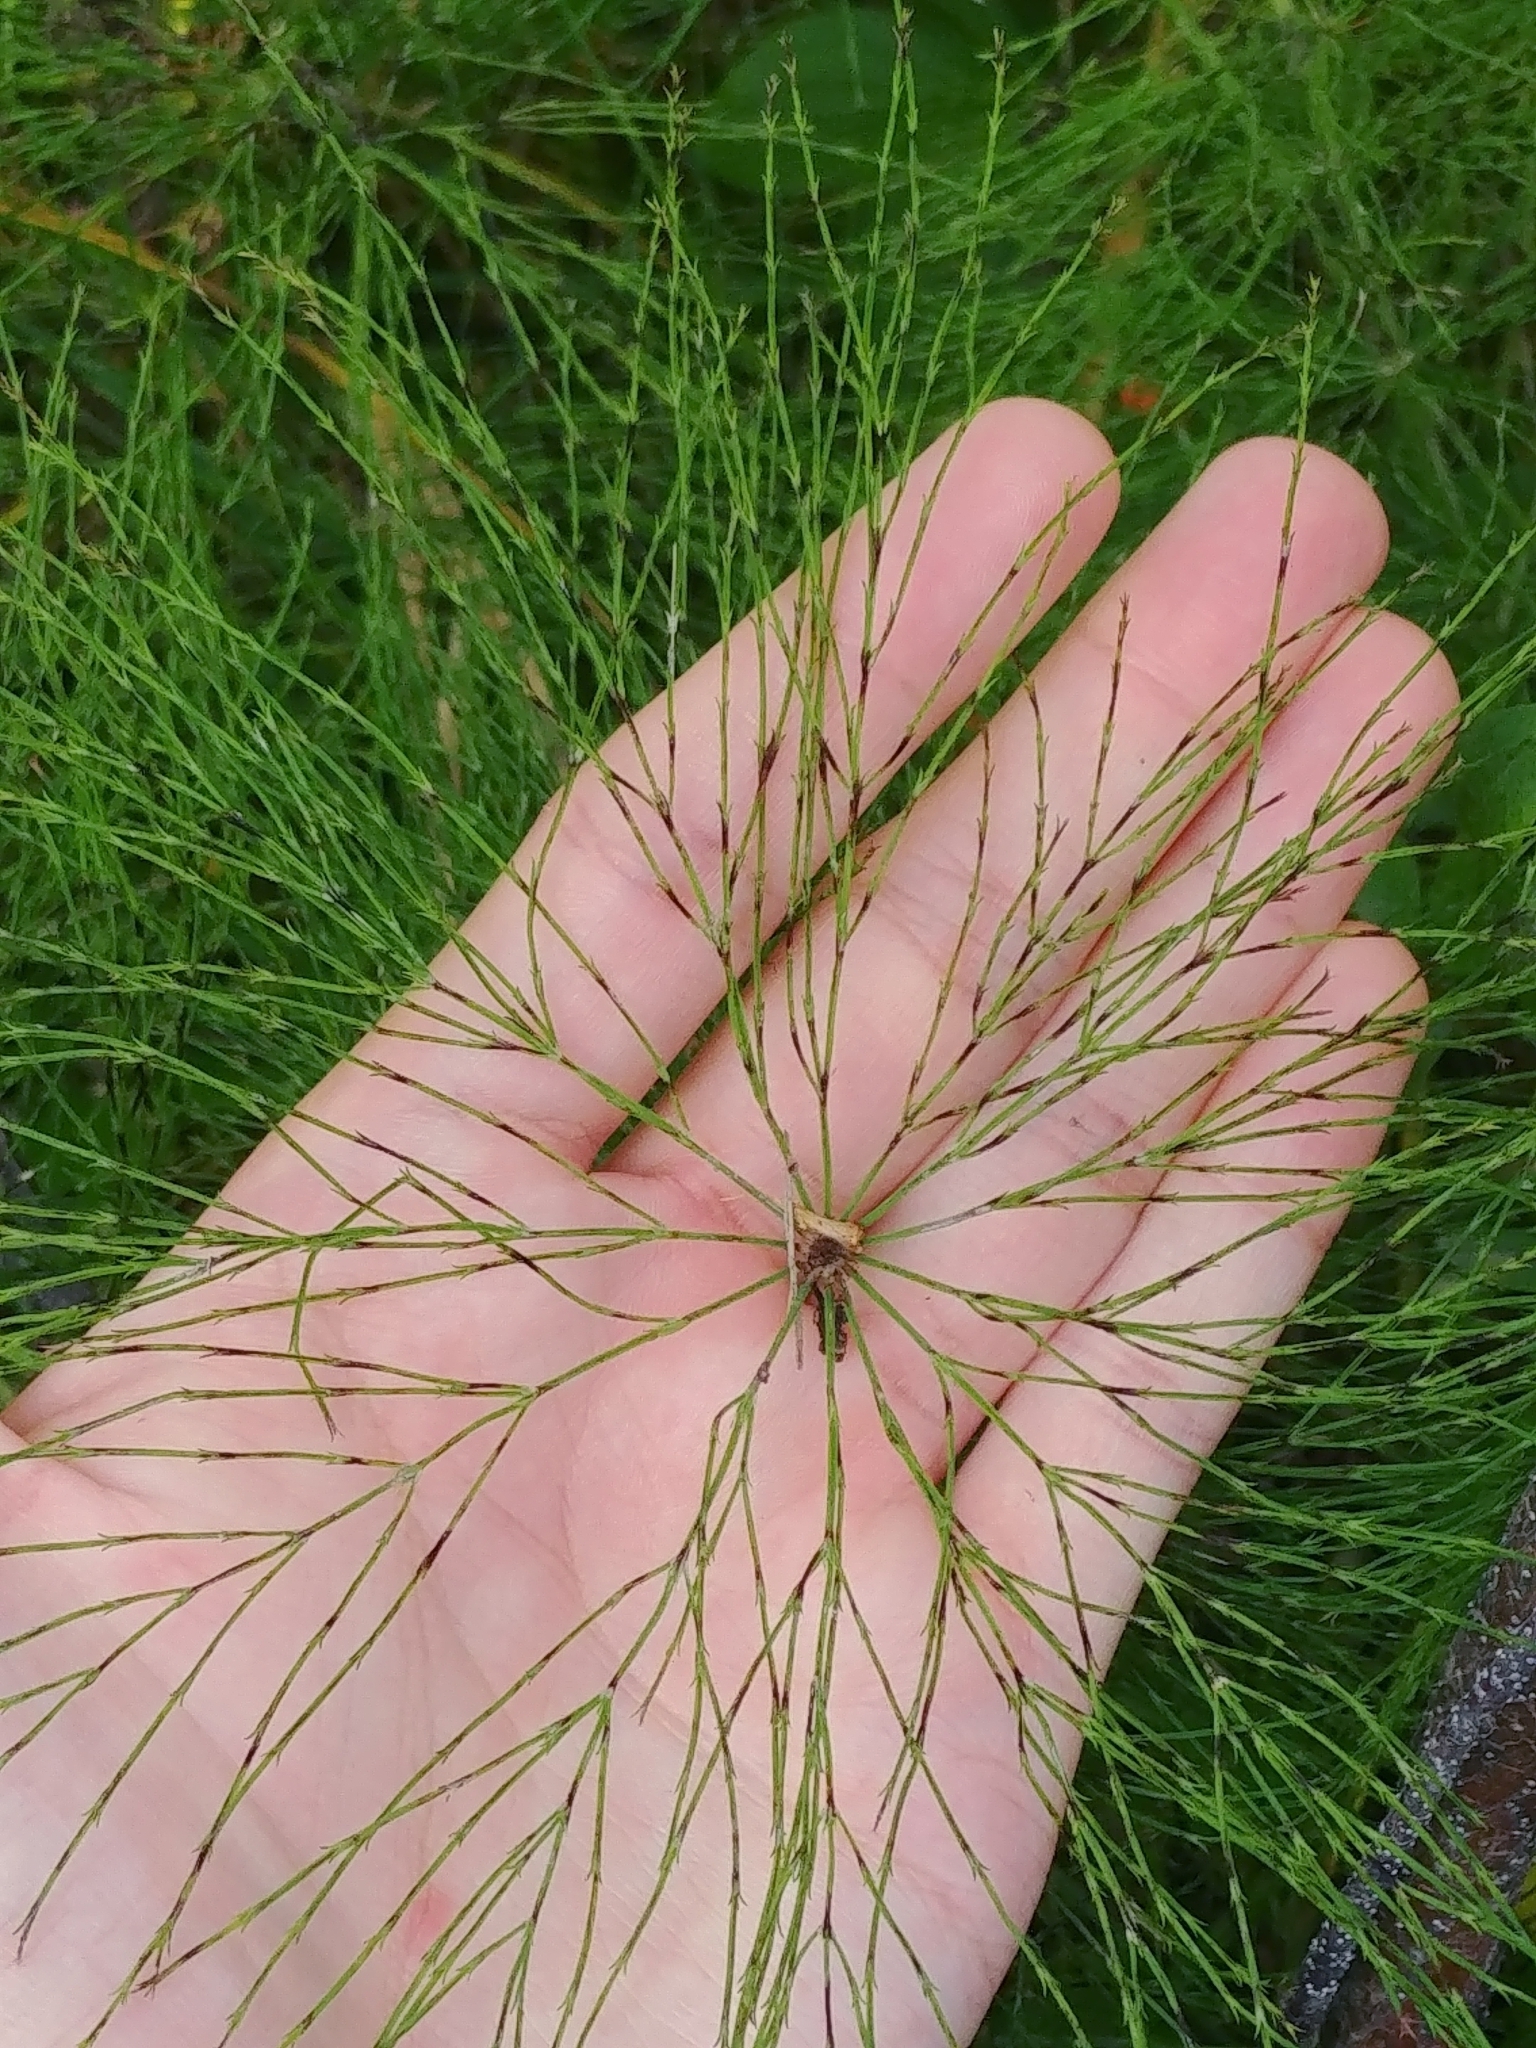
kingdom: Plantae
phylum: Tracheophyta
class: Polypodiopsida
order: Equisetales
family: Equisetaceae
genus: Equisetum
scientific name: Equisetum sylvaticum
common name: Wood horsetail
